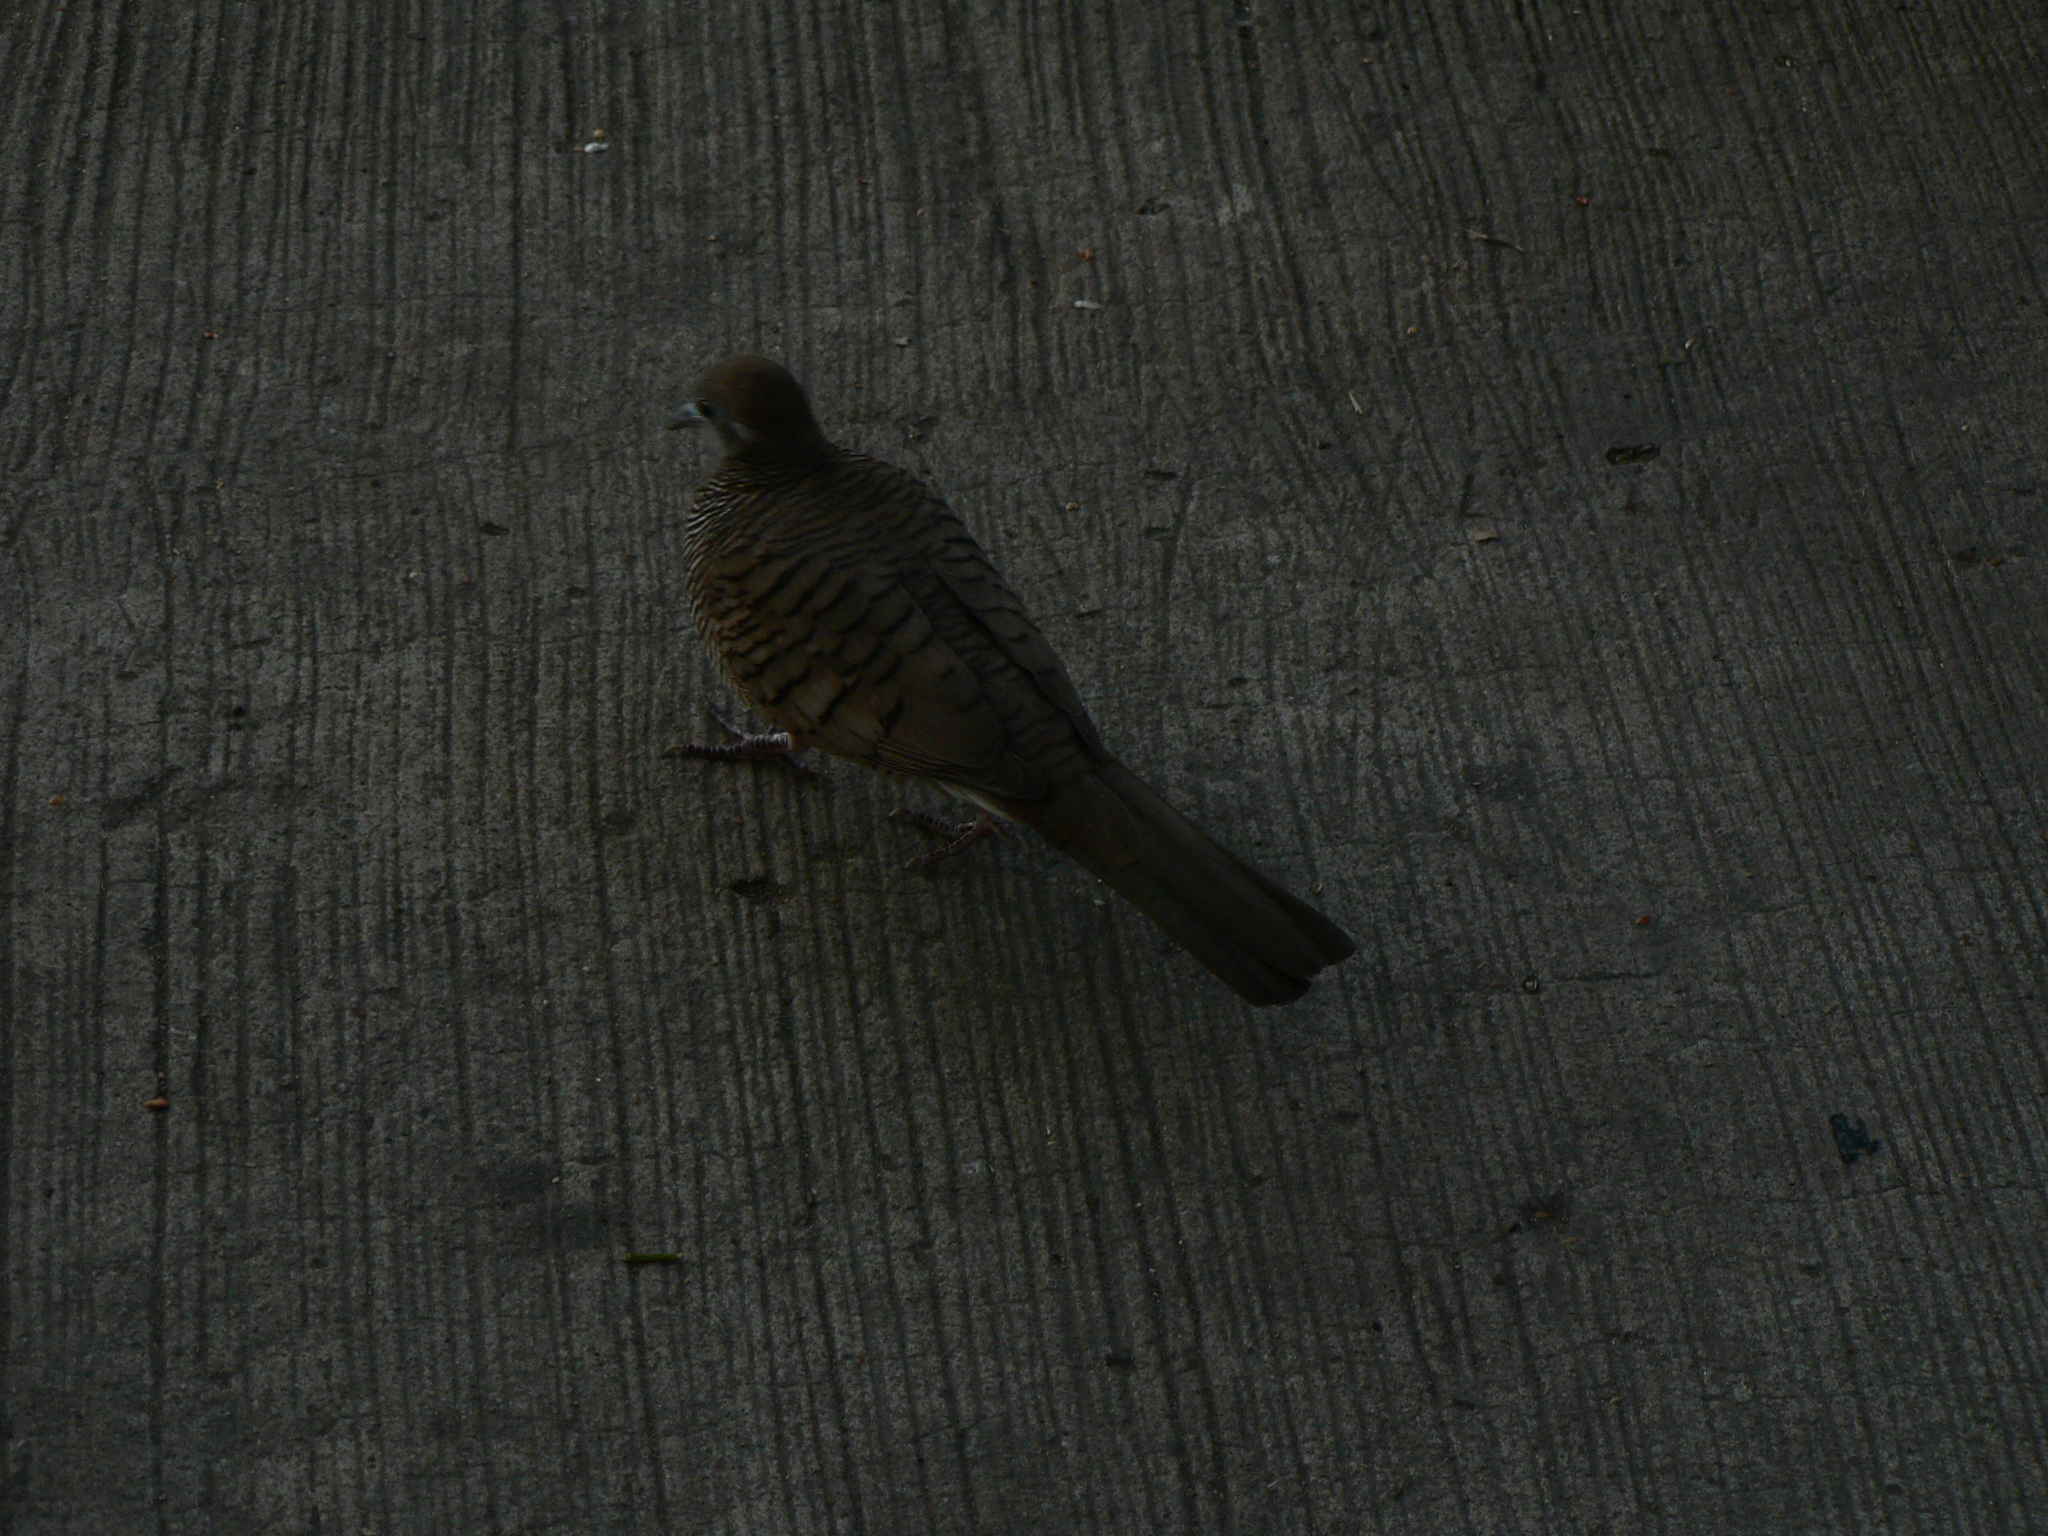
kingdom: Animalia
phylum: Chordata
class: Aves
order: Columbiformes
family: Columbidae
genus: Geopelia
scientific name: Geopelia striata
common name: Zebra dove
